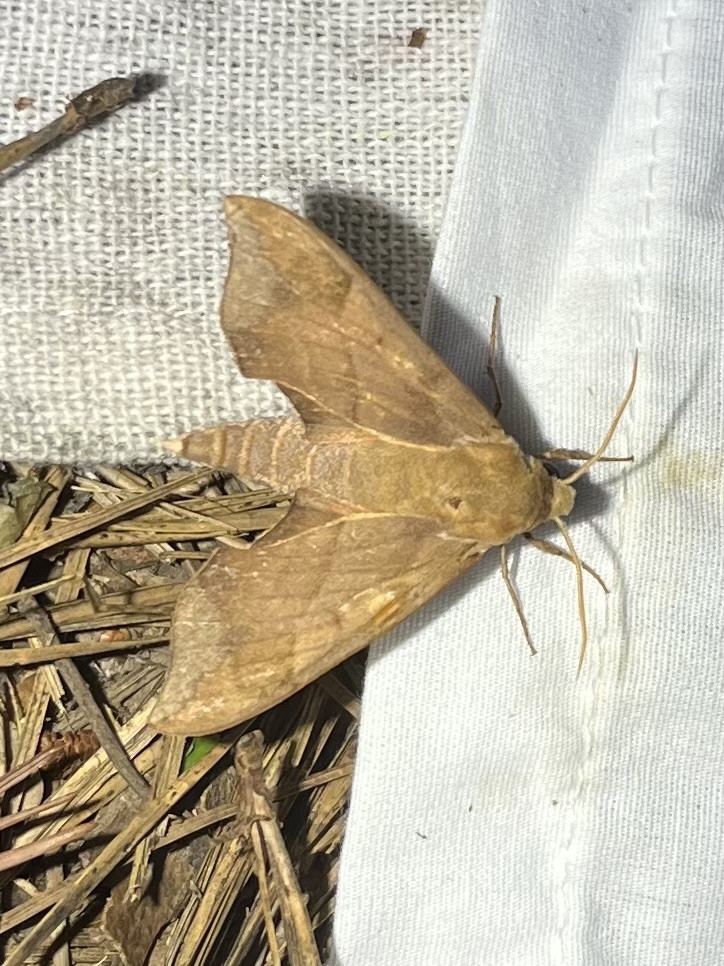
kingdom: Animalia
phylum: Arthropoda
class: Insecta
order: Lepidoptera
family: Sphingidae
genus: Darapsa
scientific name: Darapsa myron
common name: Hog sphinx
